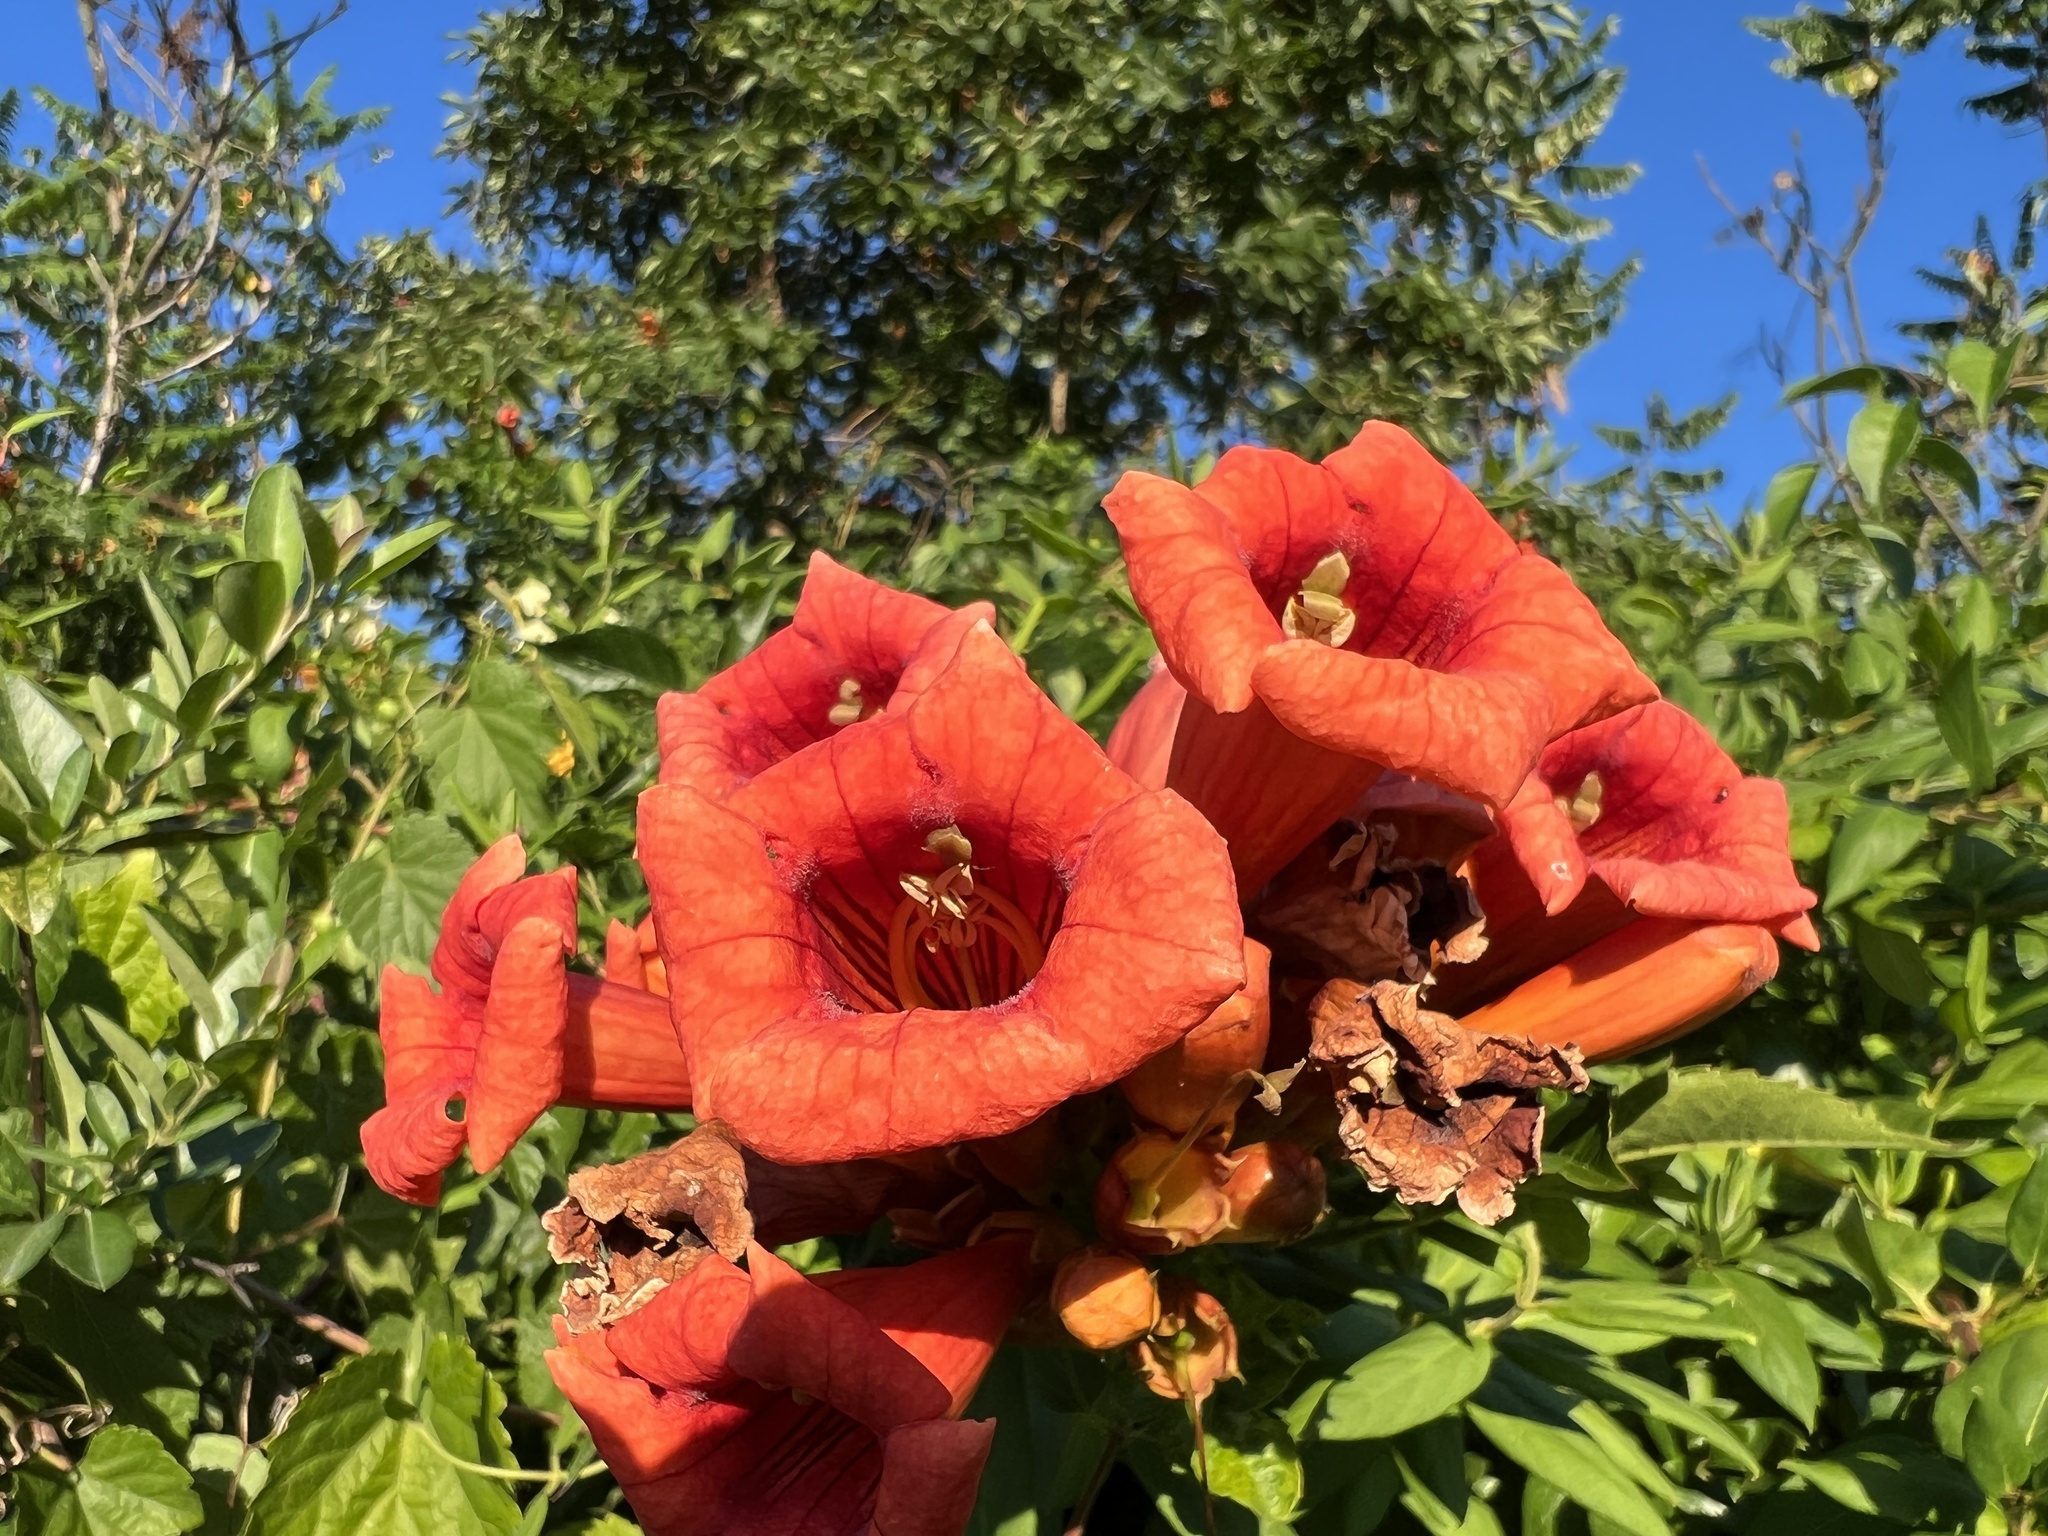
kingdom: Plantae
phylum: Tracheophyta
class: Magnoliopsida
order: Lamiales
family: Bignoniaceae
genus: Campsis
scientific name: Campsis radicans
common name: Trumpet-creeper
